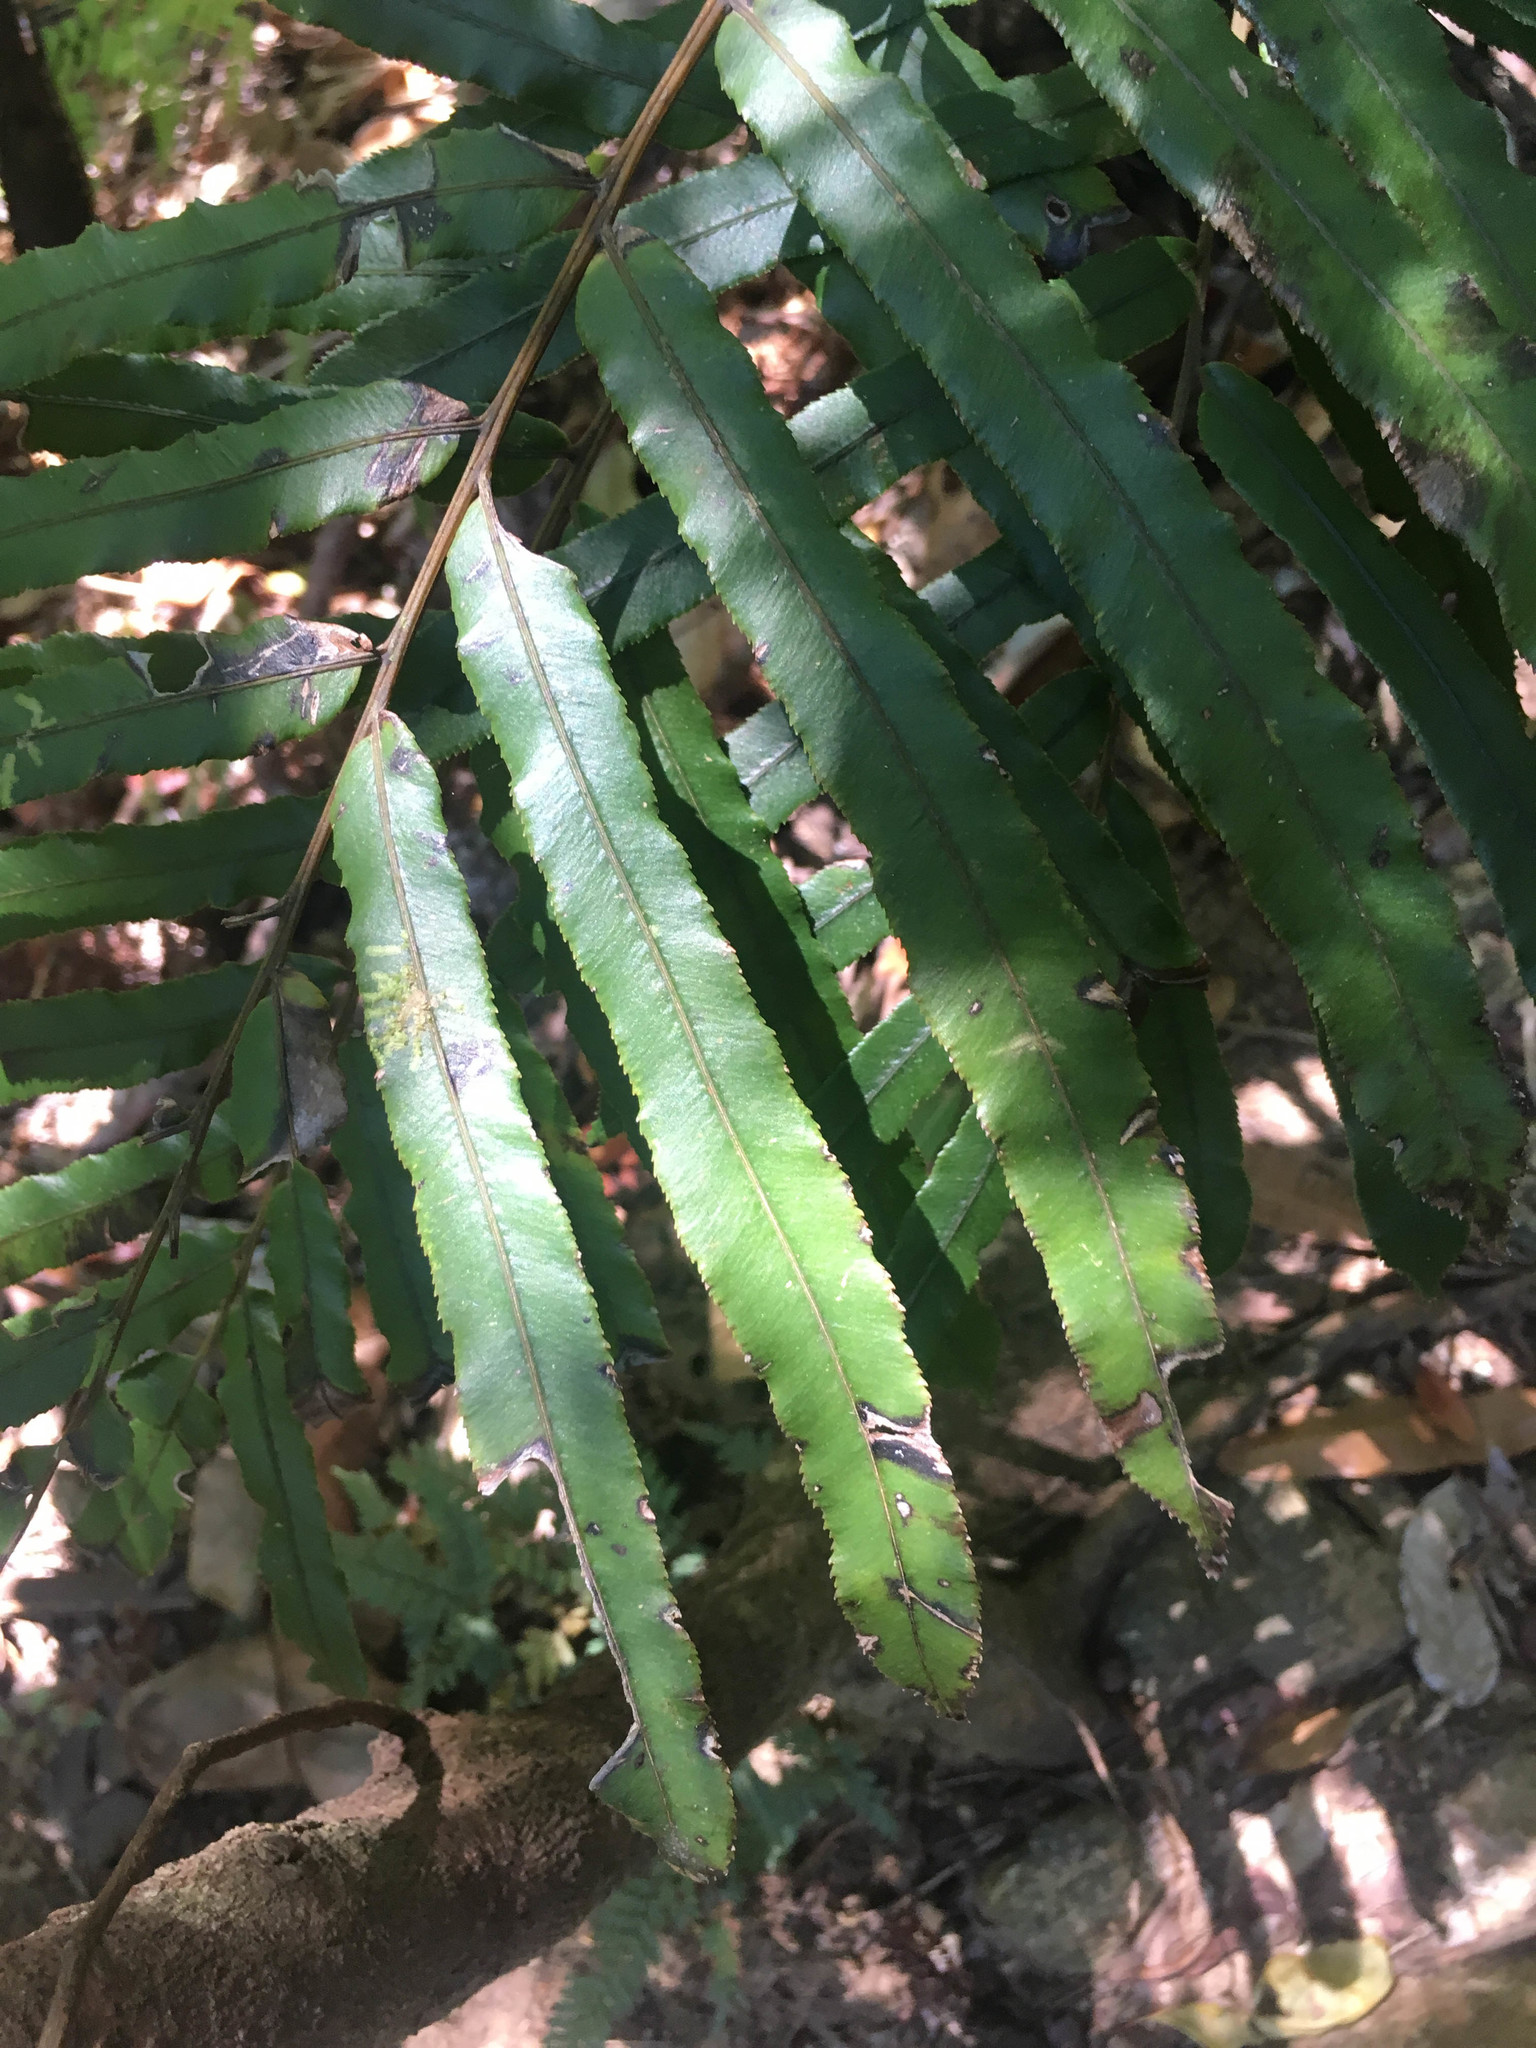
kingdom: Plantae
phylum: Tracheophyta
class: Polypodiopsida
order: Polypodiales
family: Blechnaceae
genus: Parablechnum
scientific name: Parablechnum chauliodontum
